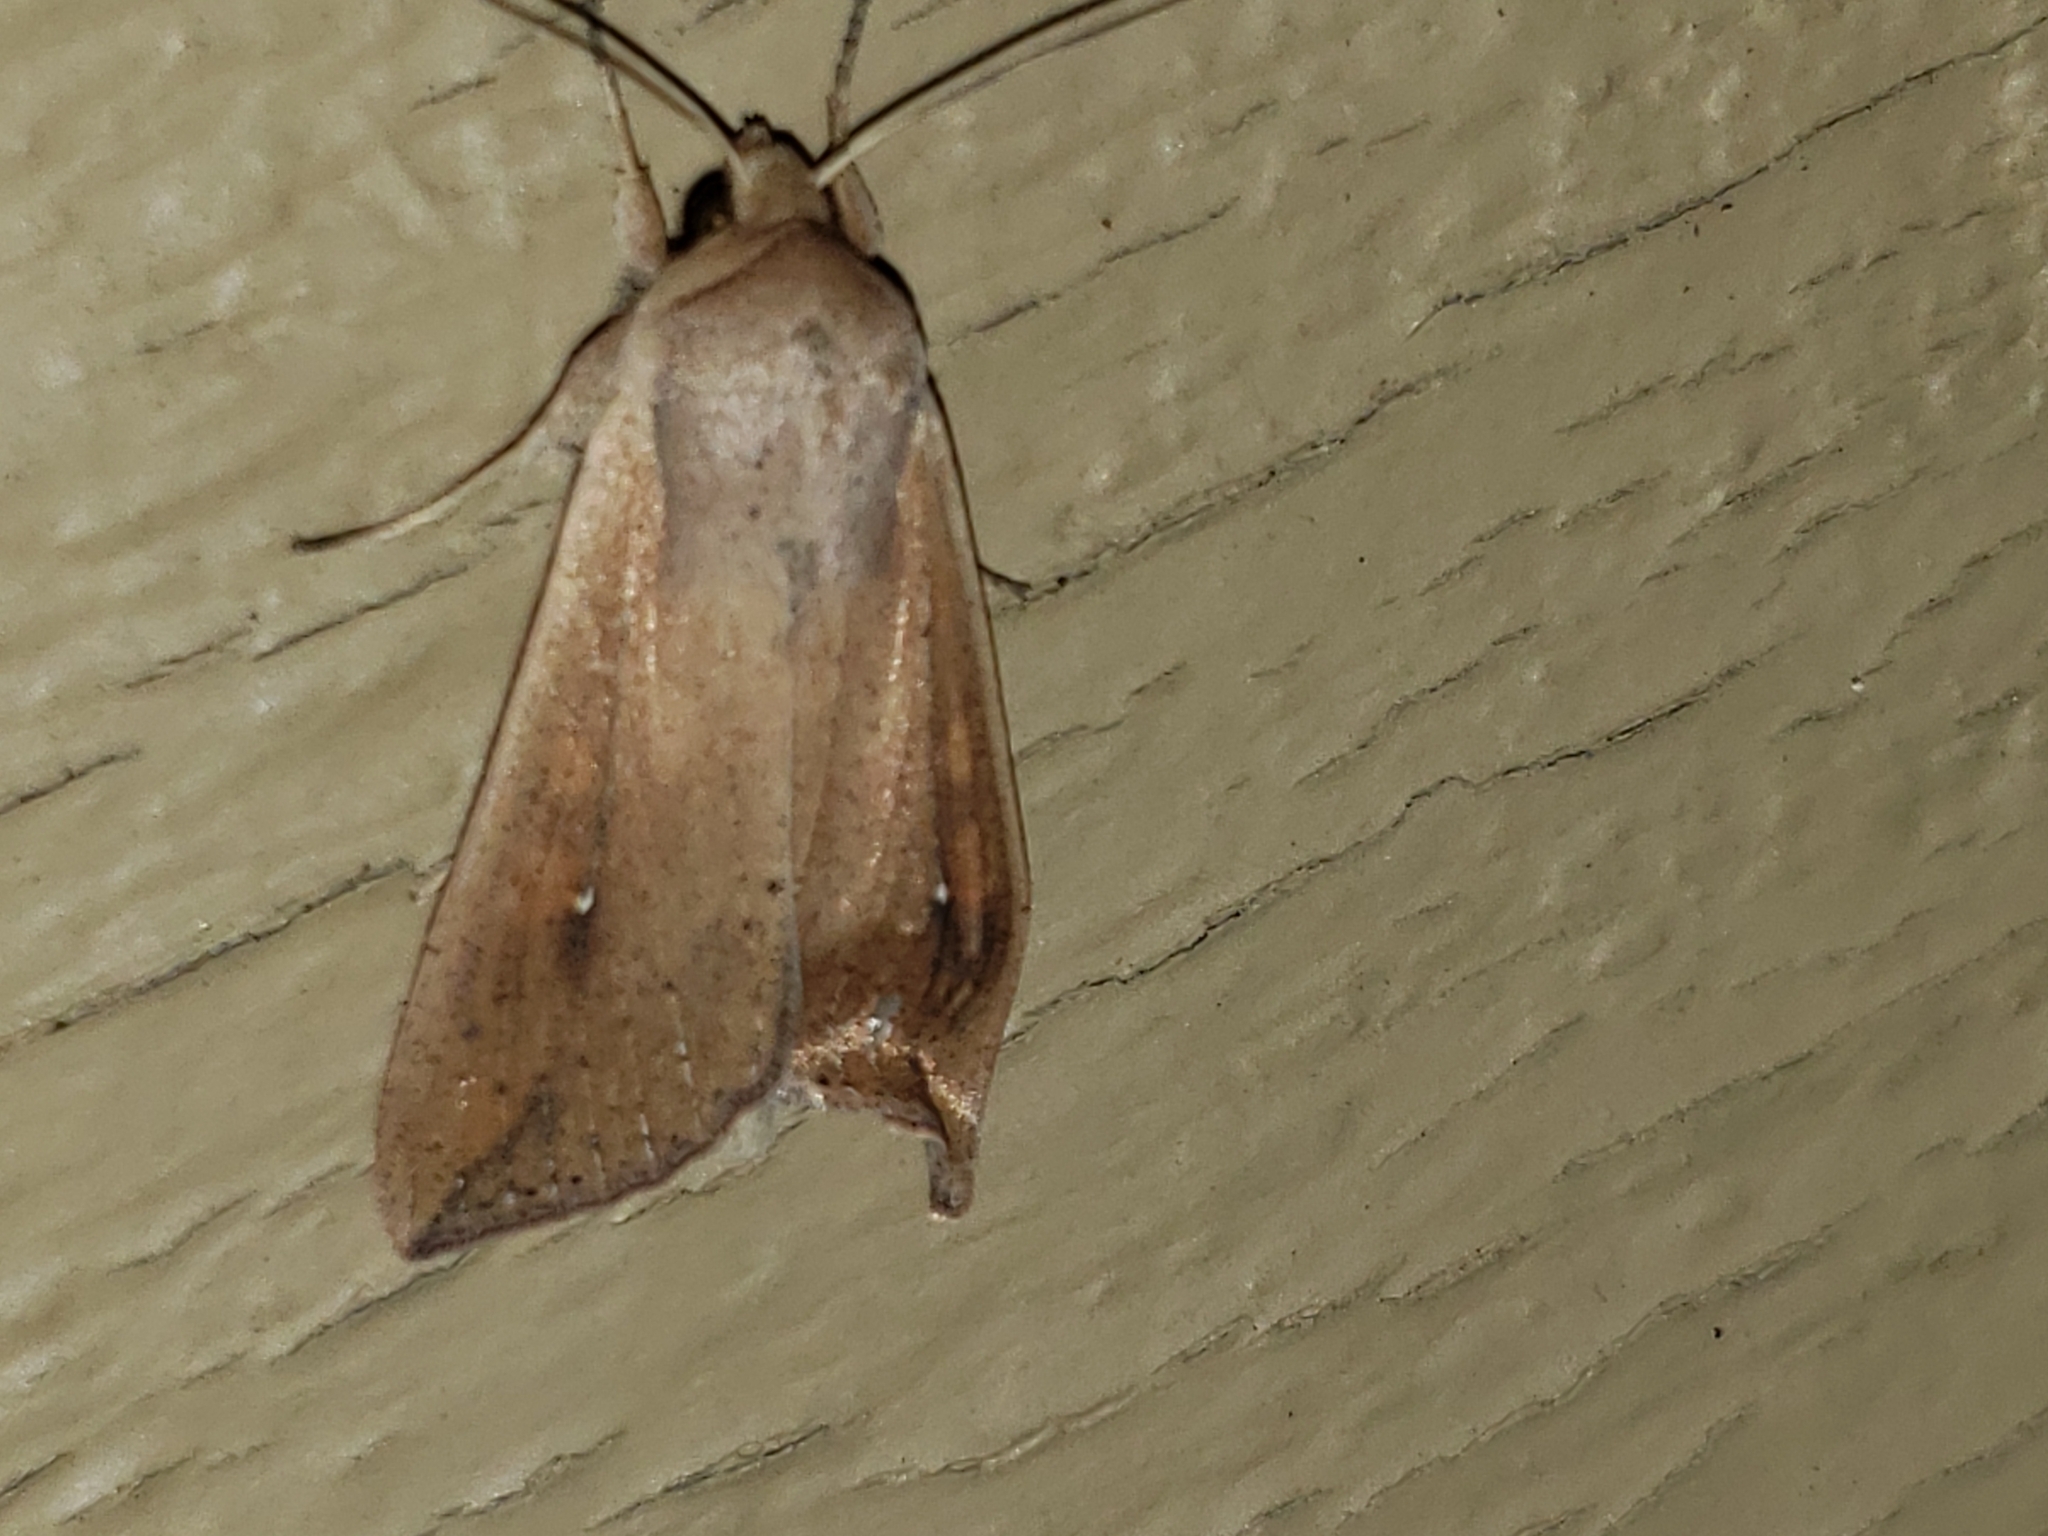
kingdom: Animalia
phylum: Arthropoda
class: Insecta
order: Lepidoptera
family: Noctuidae
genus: Mythimna
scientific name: Mythimna unipuncta
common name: White-speck
